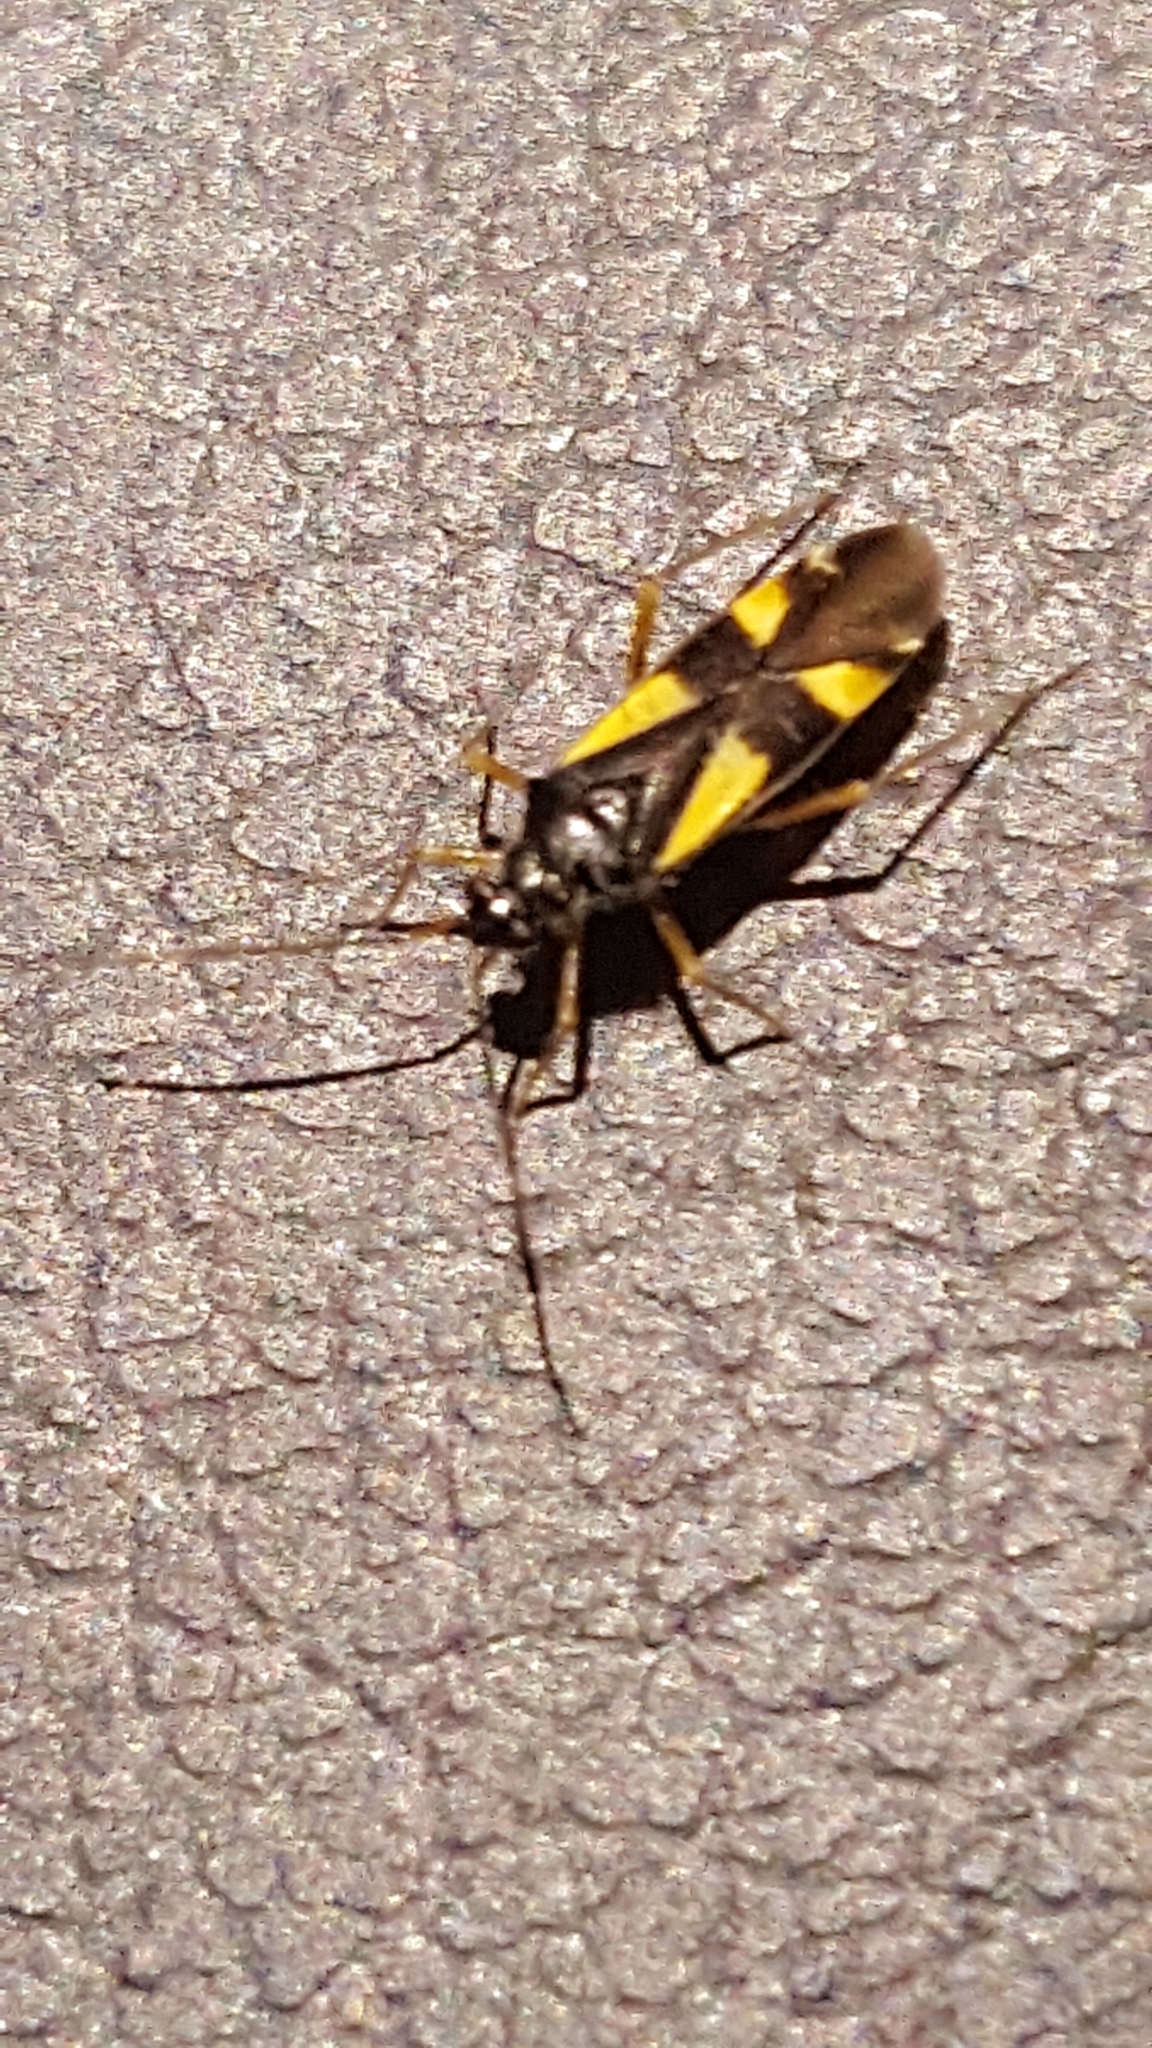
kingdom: Animalia
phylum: Arthropoda
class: Insecta
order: Hemiptera
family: Miridae
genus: Dryophilocoris
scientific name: Dryophilocoris flavoquadrimaculatus
